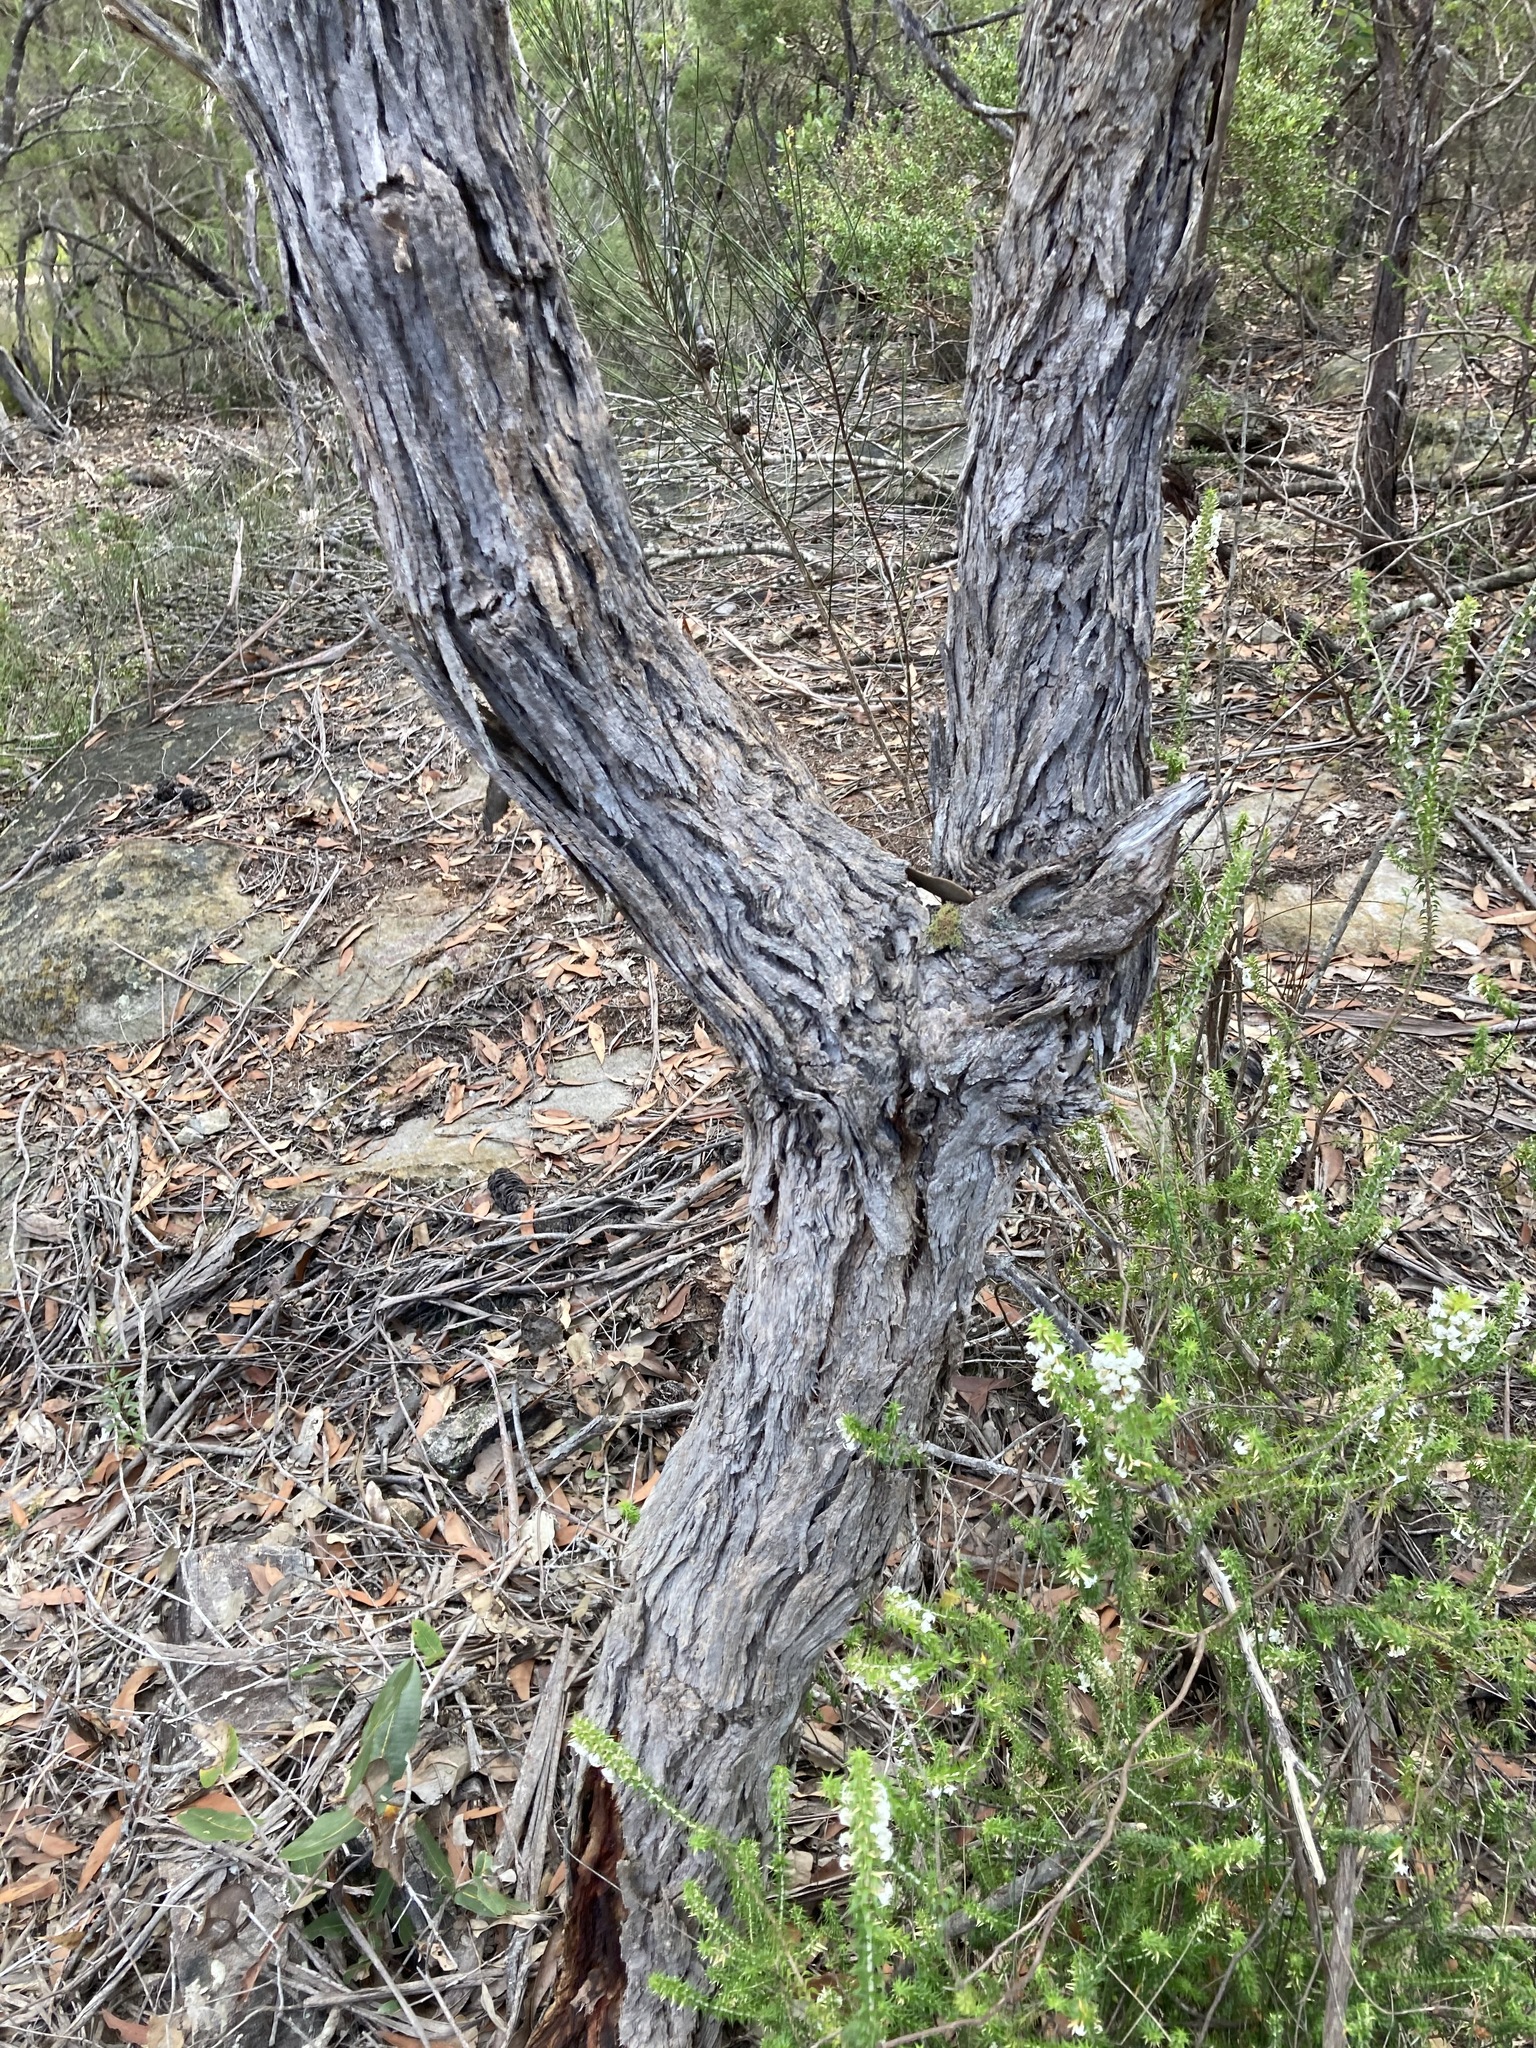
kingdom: Plantae
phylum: Tracheophyta
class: Magnoliopsida
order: Myrtales
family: Myrtaceae
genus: Angophora
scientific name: Angophora hispida
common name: Dwarf-apple
